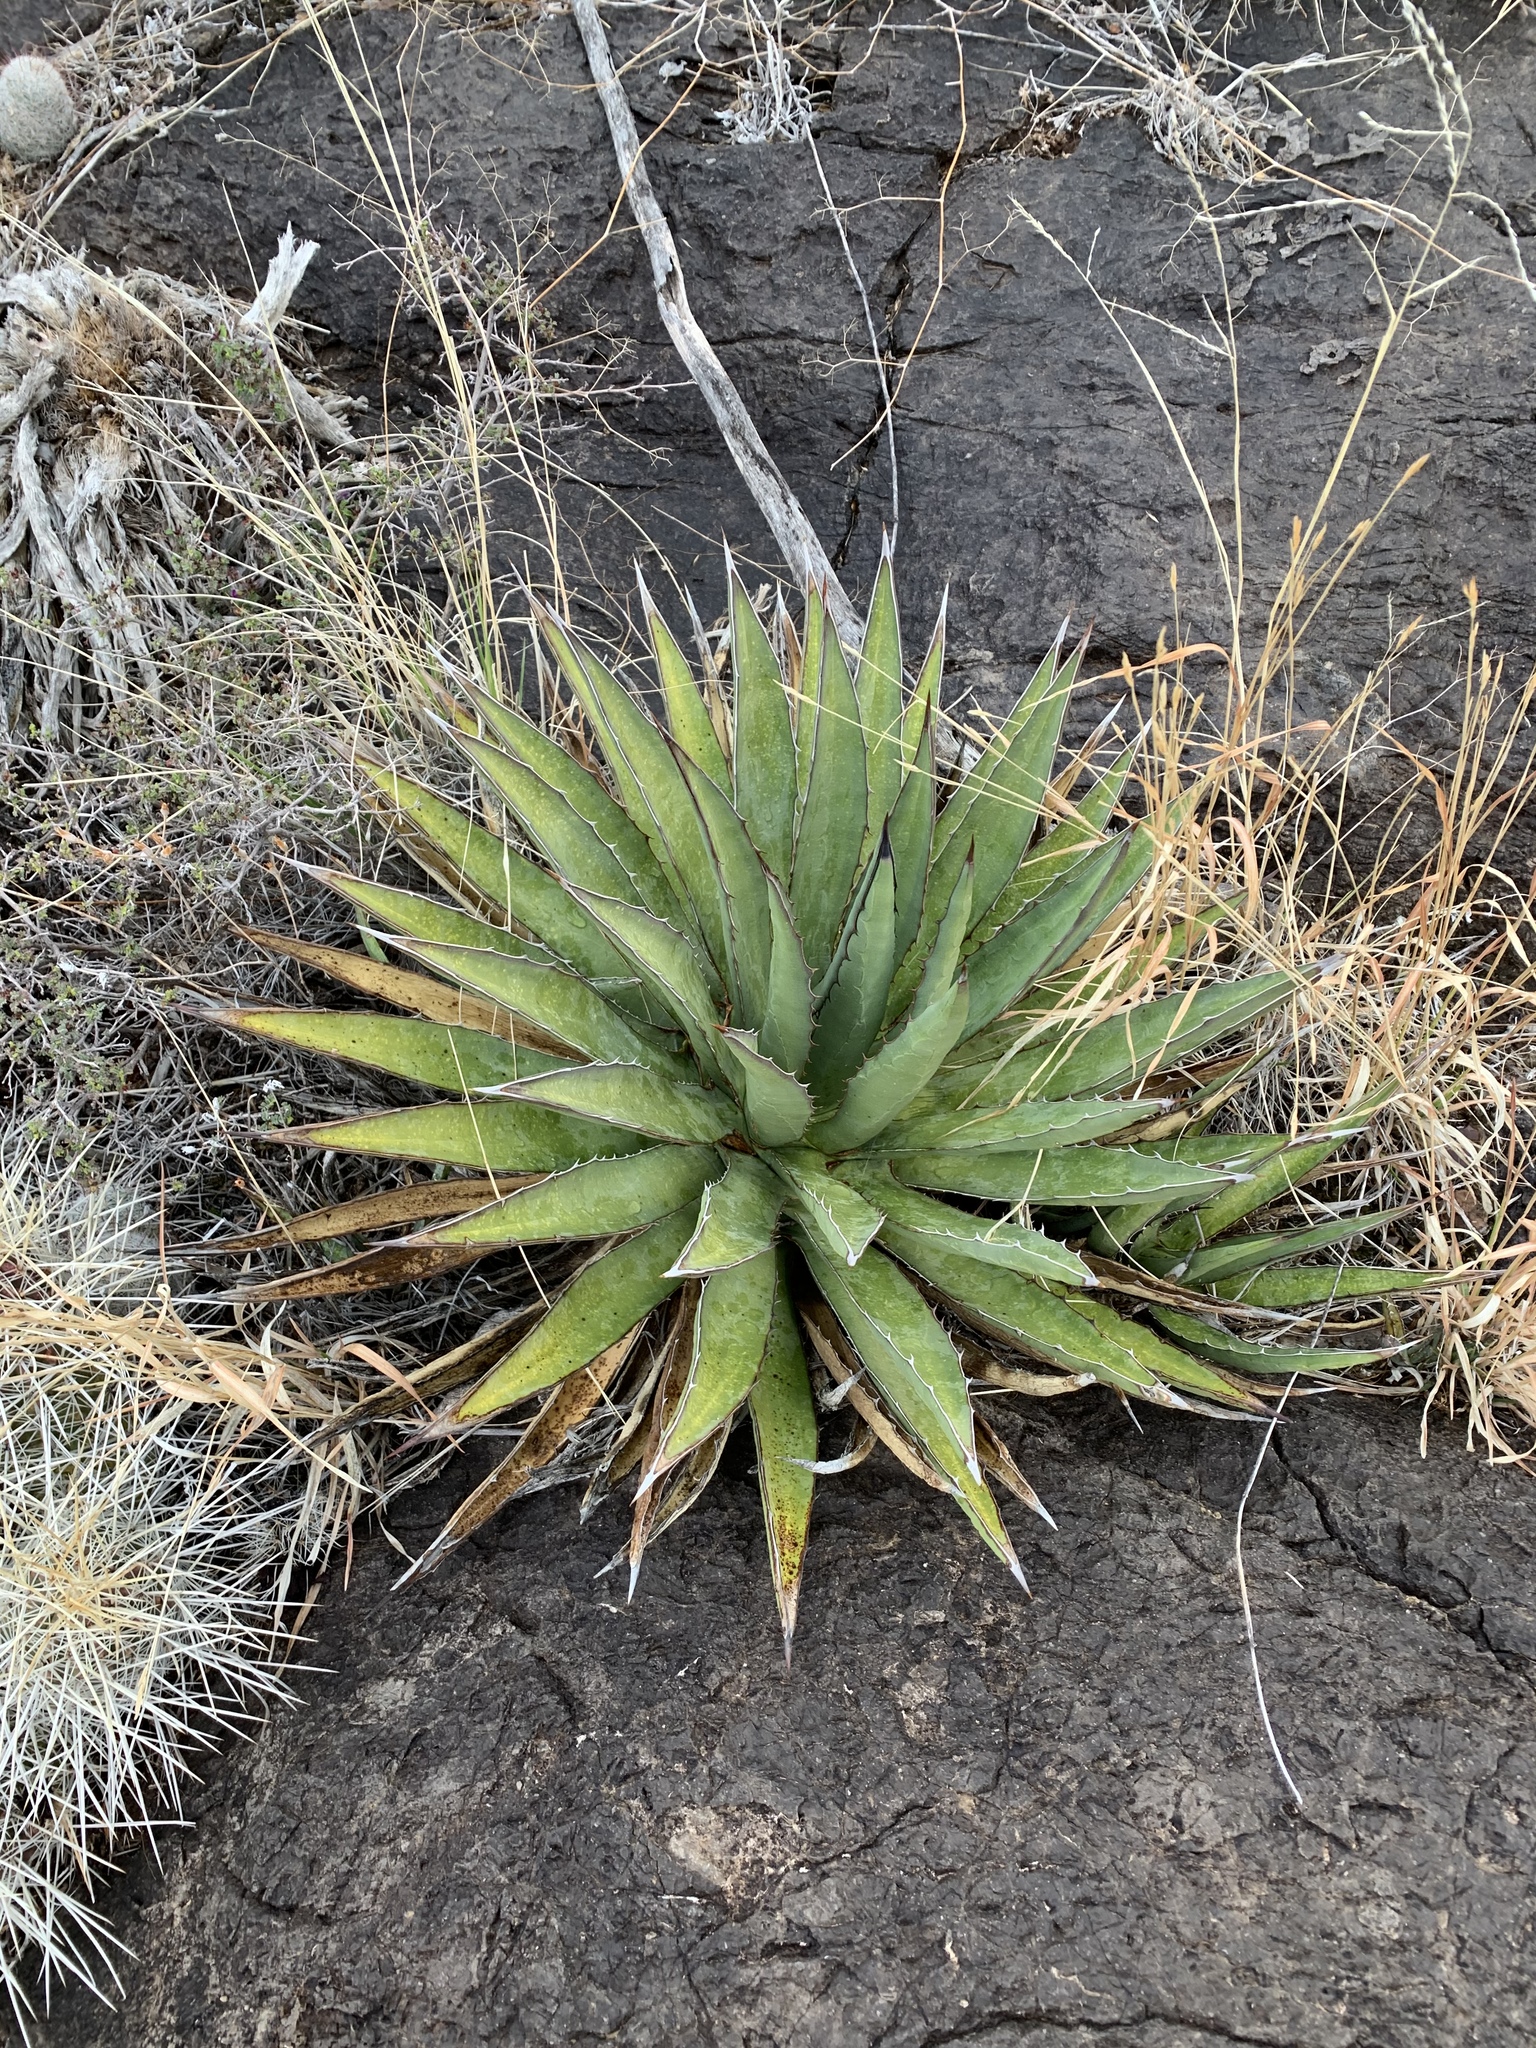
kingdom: Plantae
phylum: Tracheophyta
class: Liliopsida
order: Asparagales
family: Asparagaceae
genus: Agave
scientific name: Agave lechuguilla
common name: Lecheguilla agave
